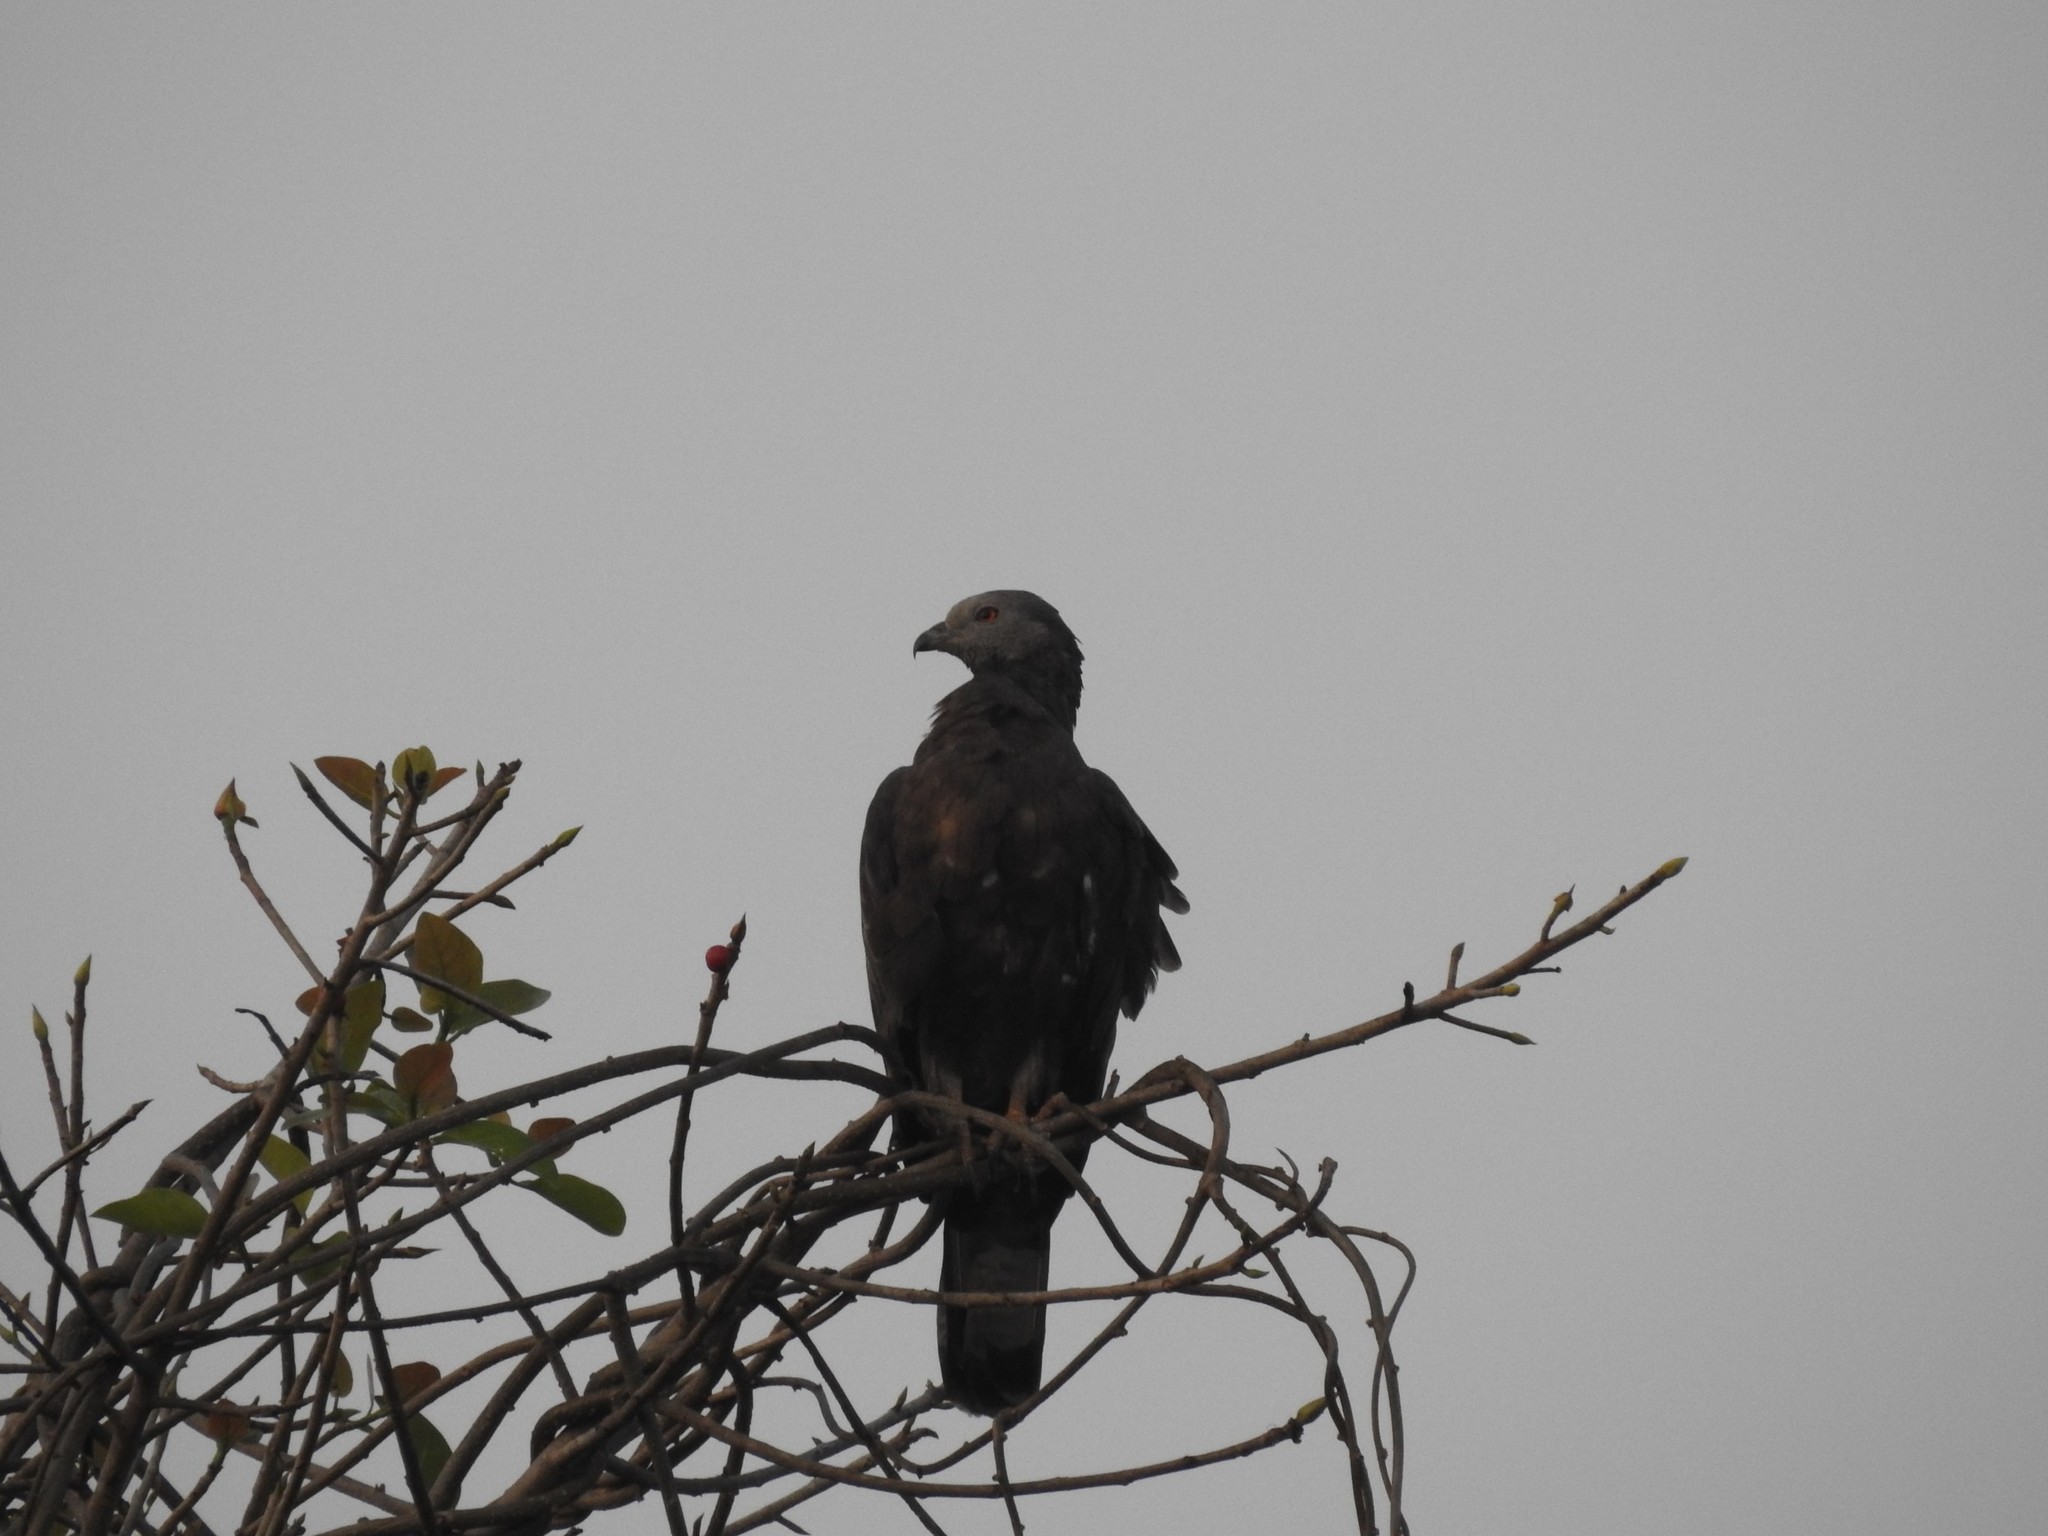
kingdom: Animalia
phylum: Chordata
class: Aves
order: Accipitriformes
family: Accipitridae
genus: Pernis
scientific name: Pernis ptilorhynchus
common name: Crested honey buzzard
